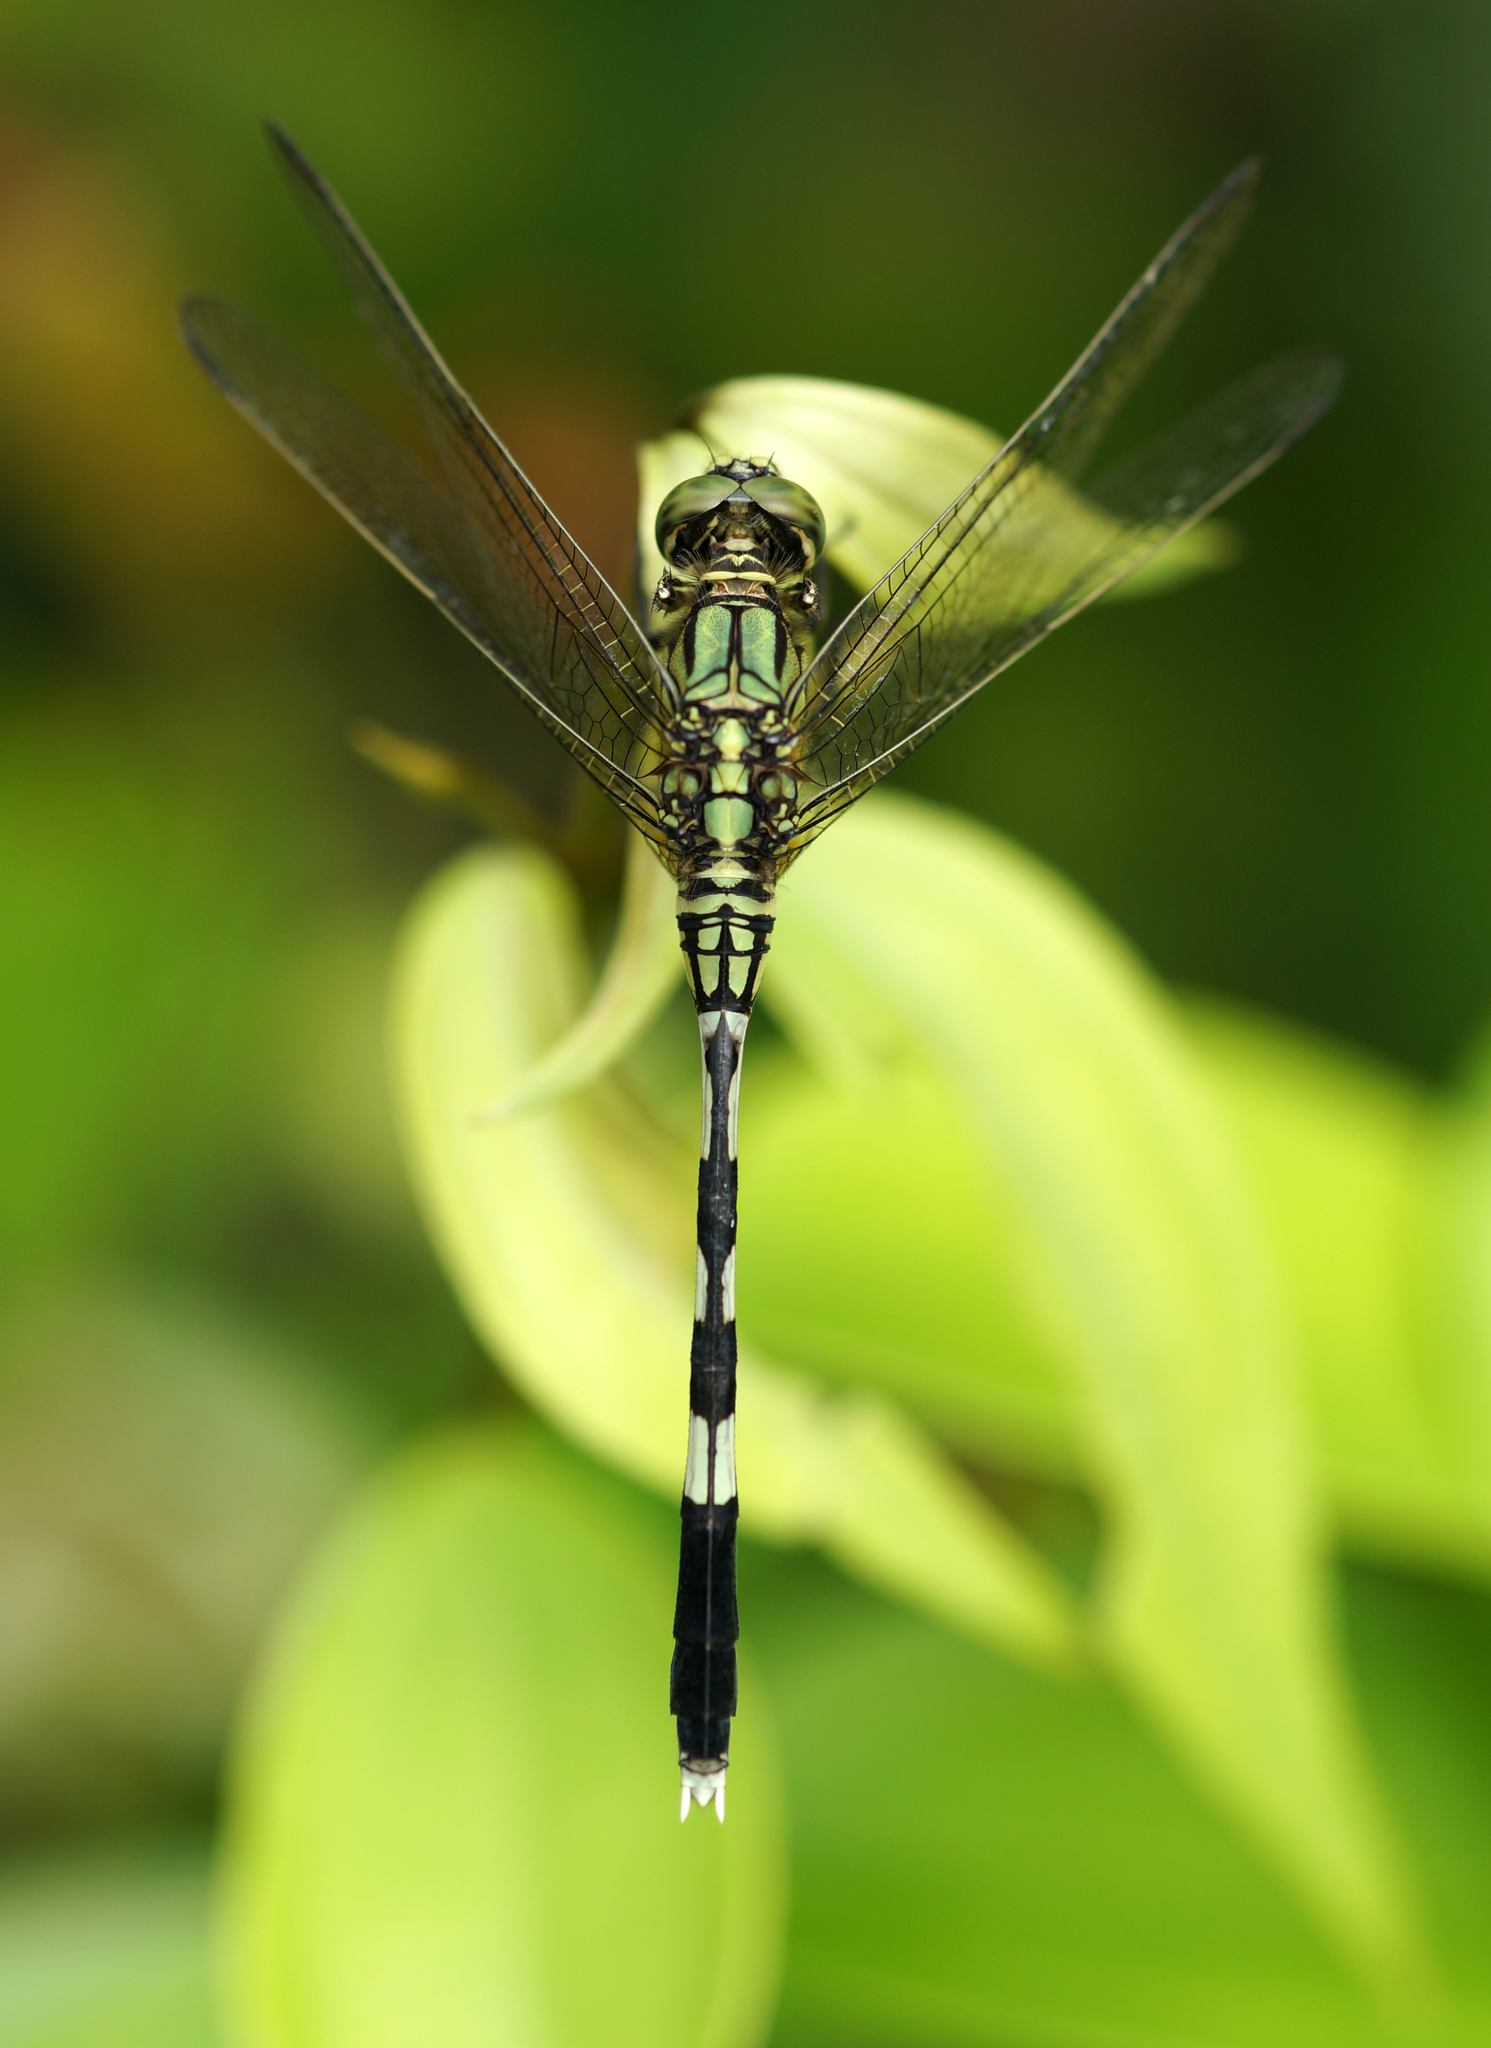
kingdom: Animalia
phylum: Arthropoda
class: Insecta
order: Odonata
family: Libellulidae
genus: Orthetrum
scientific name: Orthetrum sabina
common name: Slender skimmer
